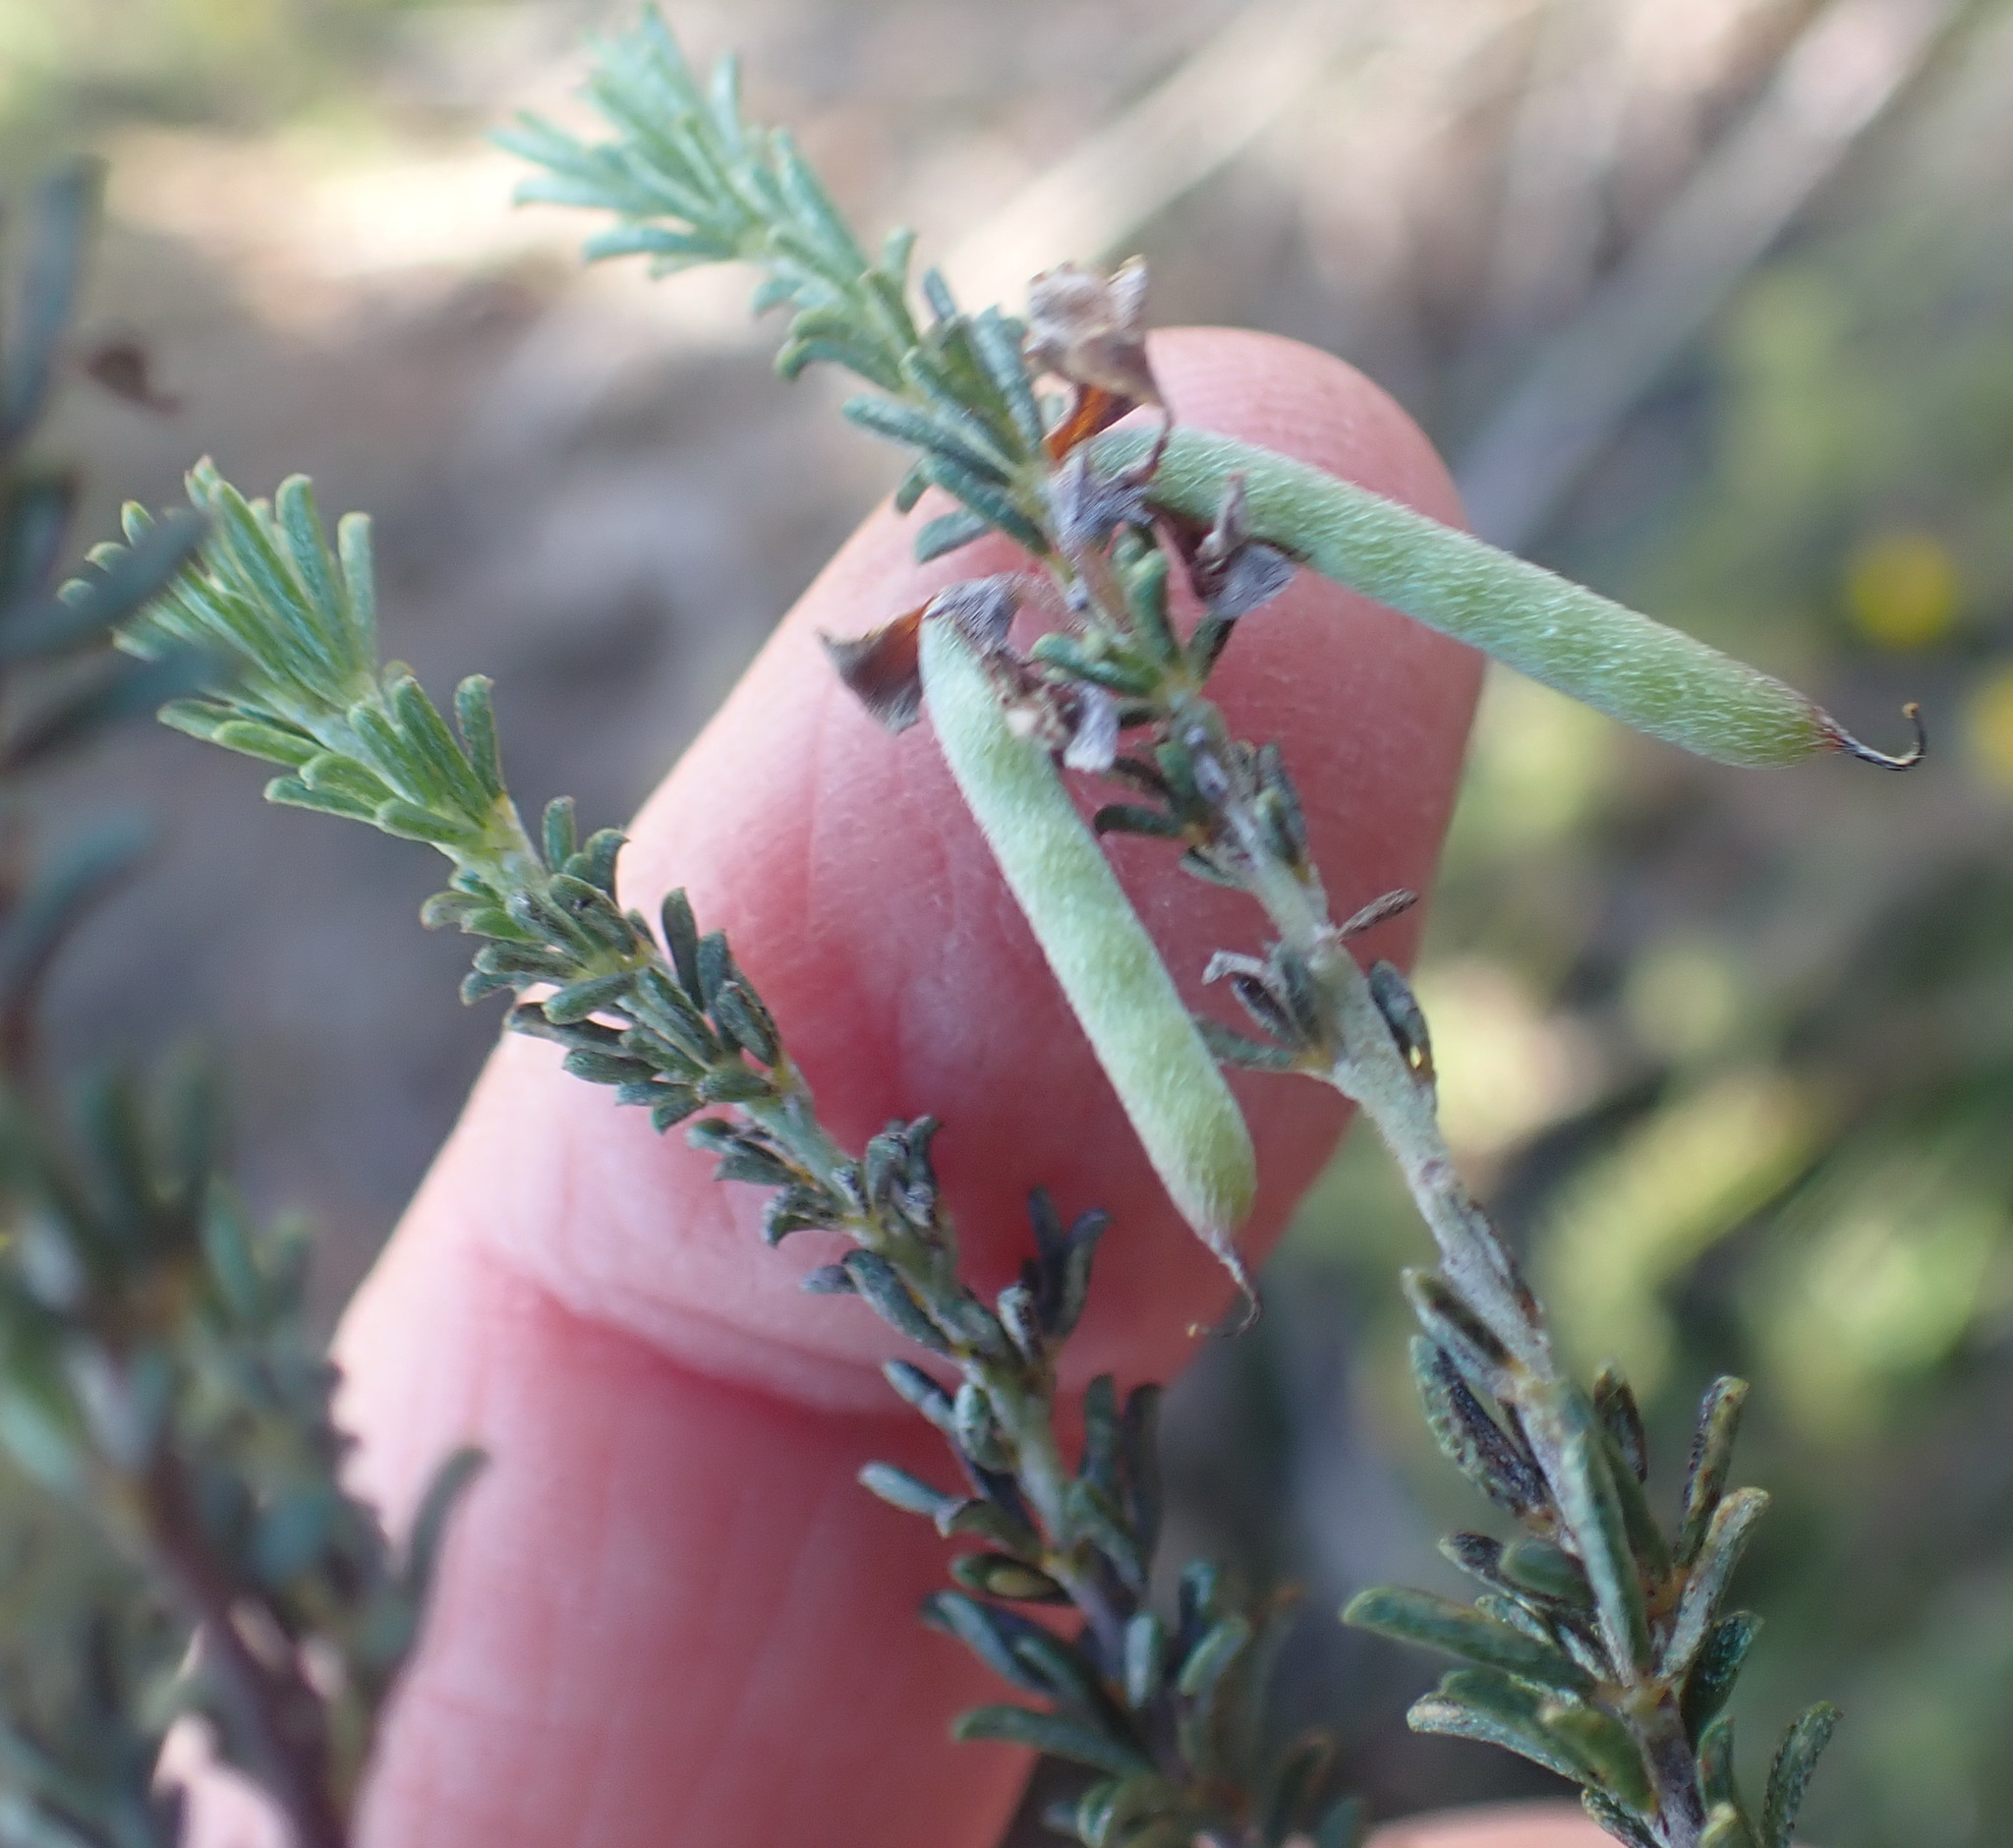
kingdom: Plantae
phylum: Tracheophyta
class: Magnoliopsida
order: Fabales
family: Fabaceae
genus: Indigofera
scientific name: Indigofera pappei
